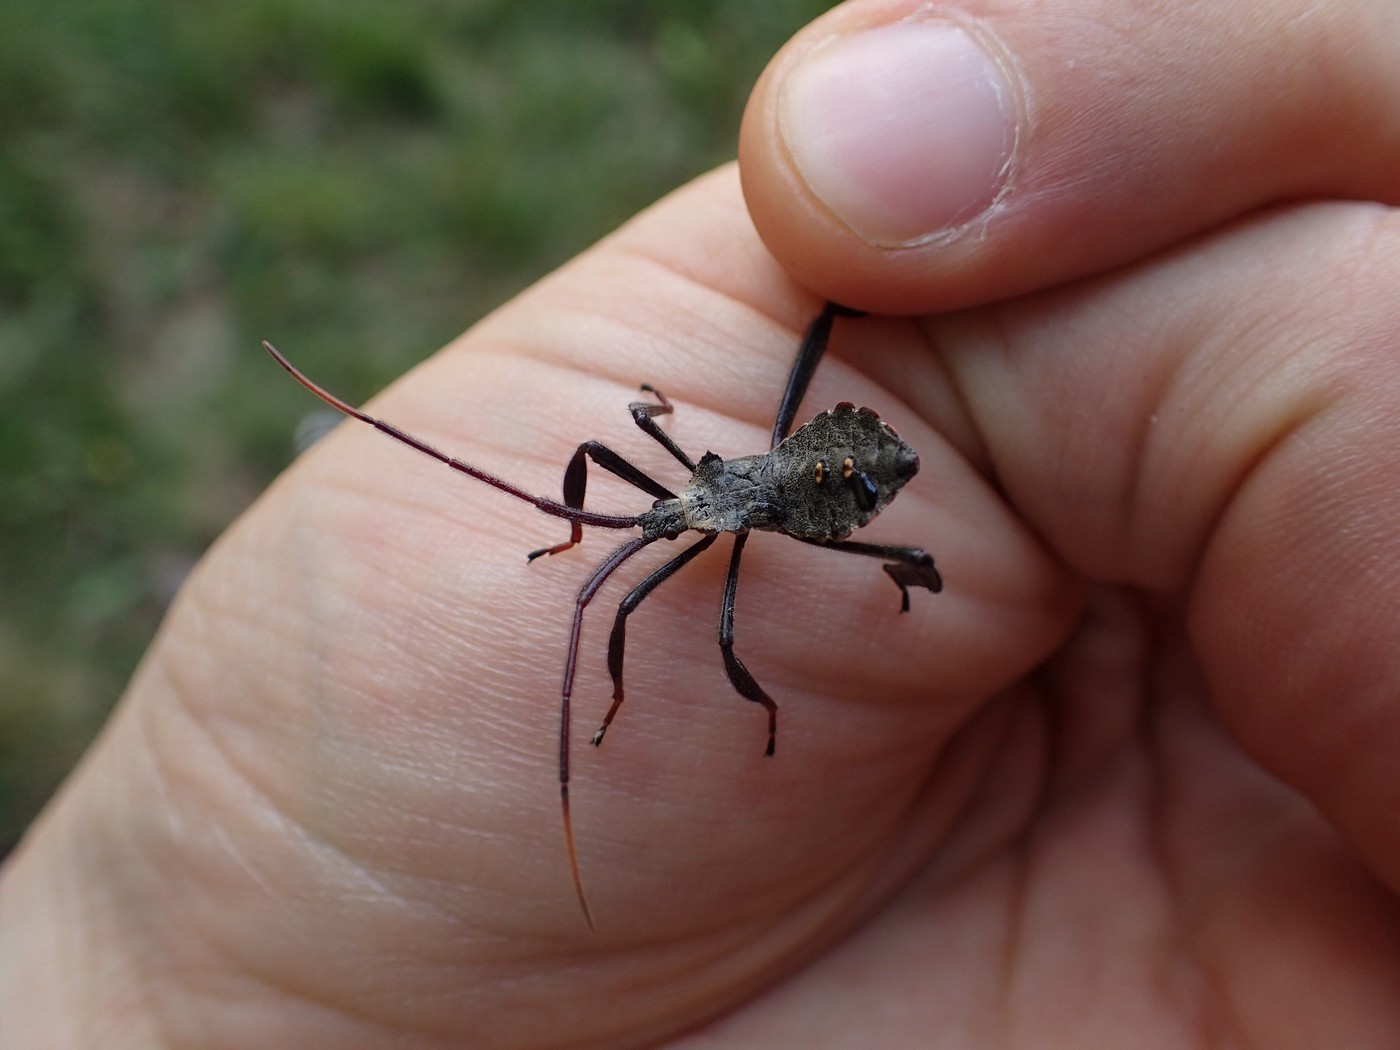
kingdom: Animalia
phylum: Arthropoda
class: Insecta
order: Hemiptera
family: Coreidae
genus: Acanthocephala
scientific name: Acanthocephala declivis
